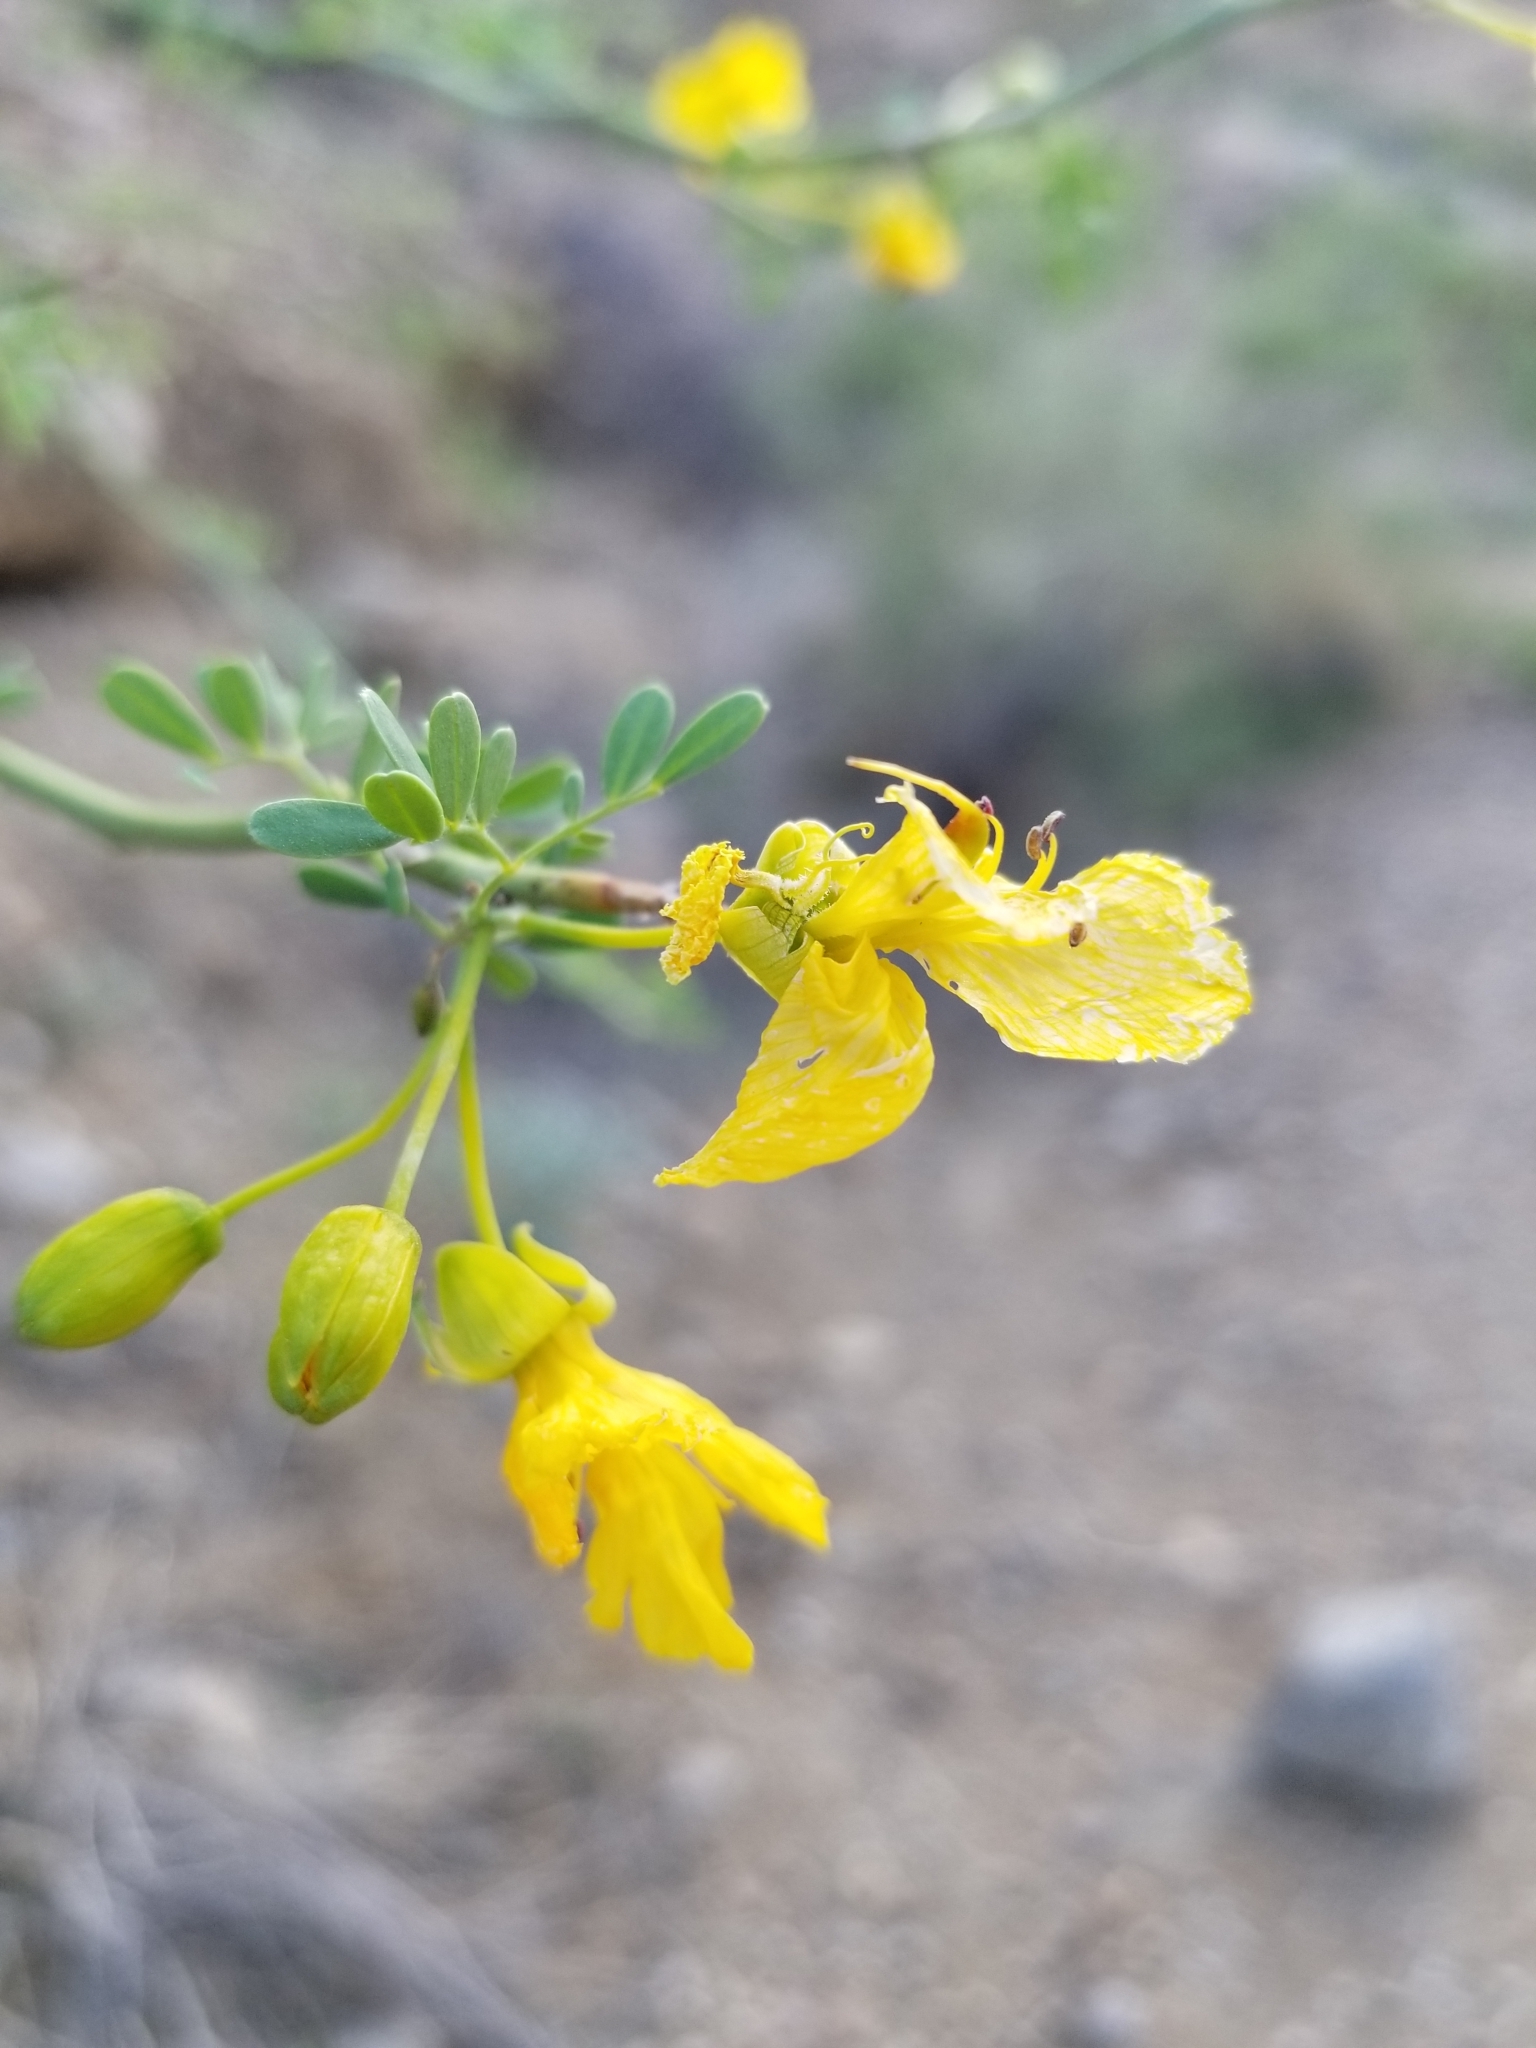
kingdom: Plantae
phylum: Tracheophyta
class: Magnoliopsida
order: Fabales
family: Fabaceae
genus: Parkinsonia
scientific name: Parkinsonia florida
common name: Blue paloverde
